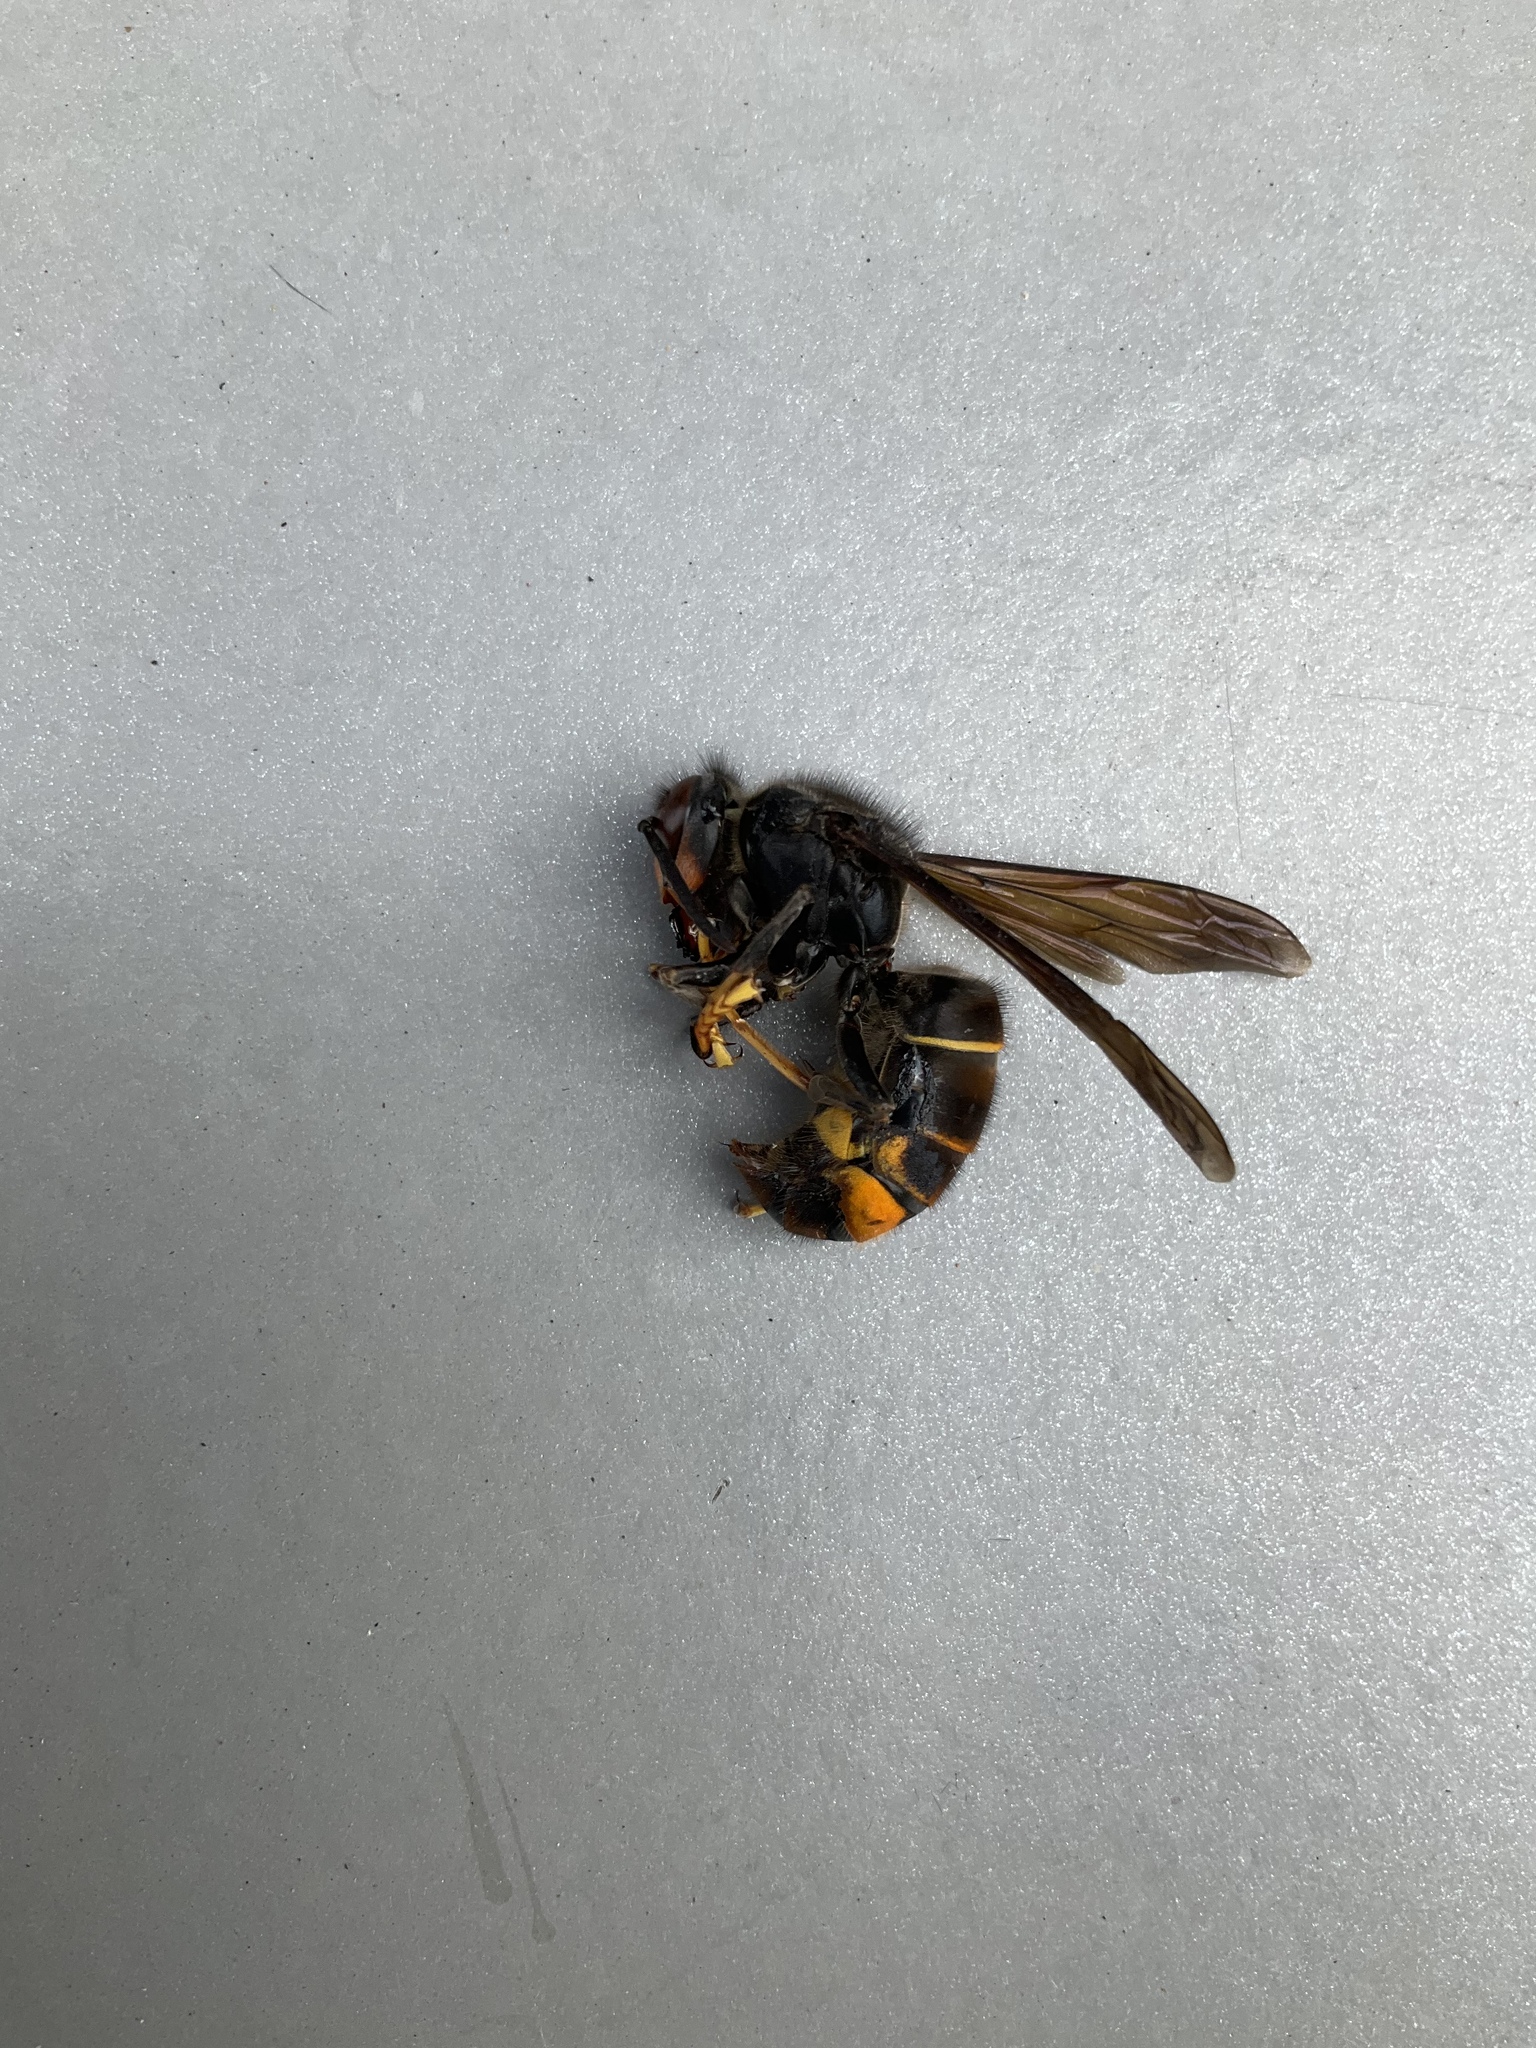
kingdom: Animalia
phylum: Arthropoda
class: Insecta
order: Hymenoptera
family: Vespidae
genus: Vespa
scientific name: Vespa velutina
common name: Asian hornet
